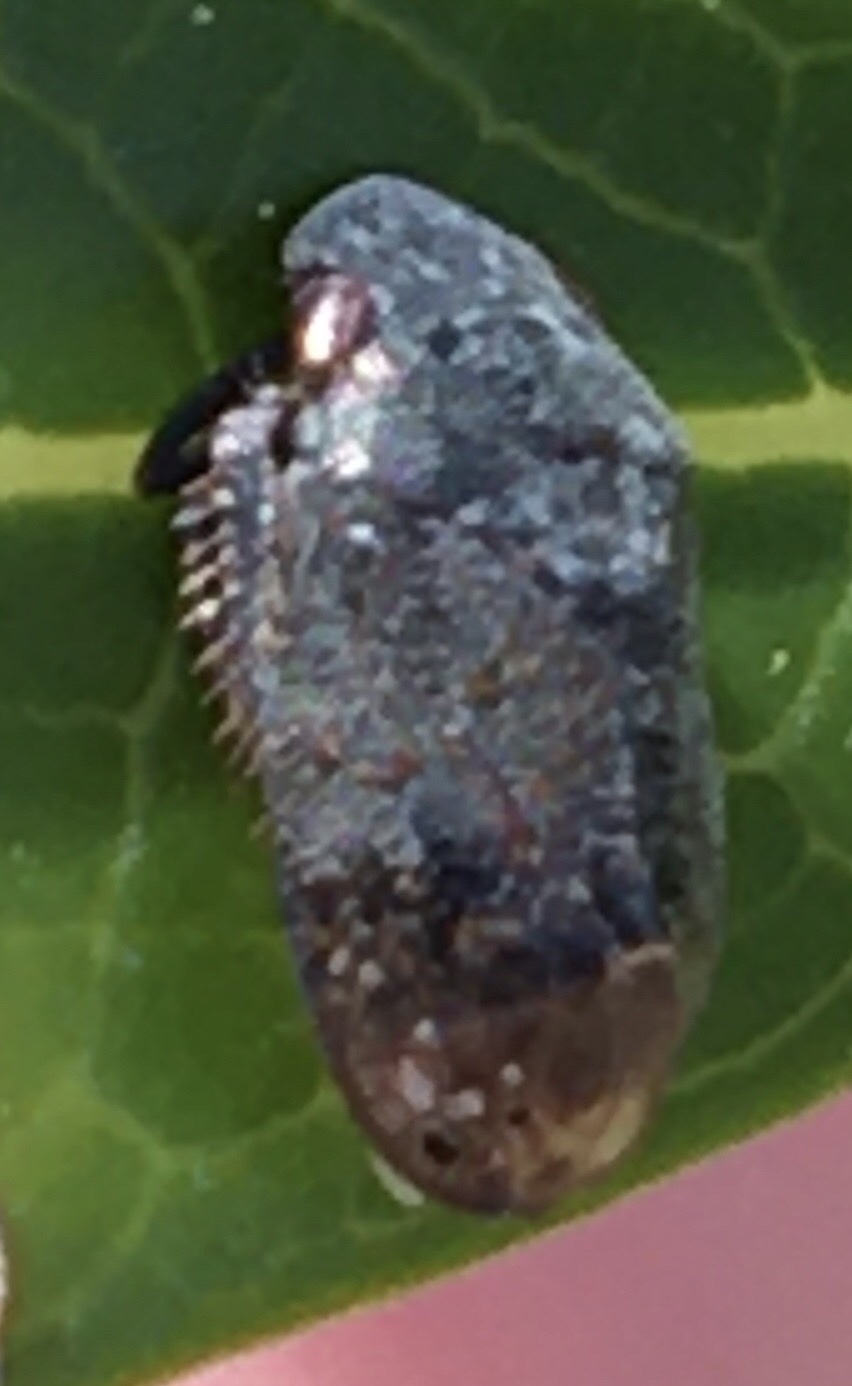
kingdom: Animalia
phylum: Arthropoda
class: Insecta
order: Hemiptera
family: Cicadellidae
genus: Penthimia
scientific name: Penthimia americana
